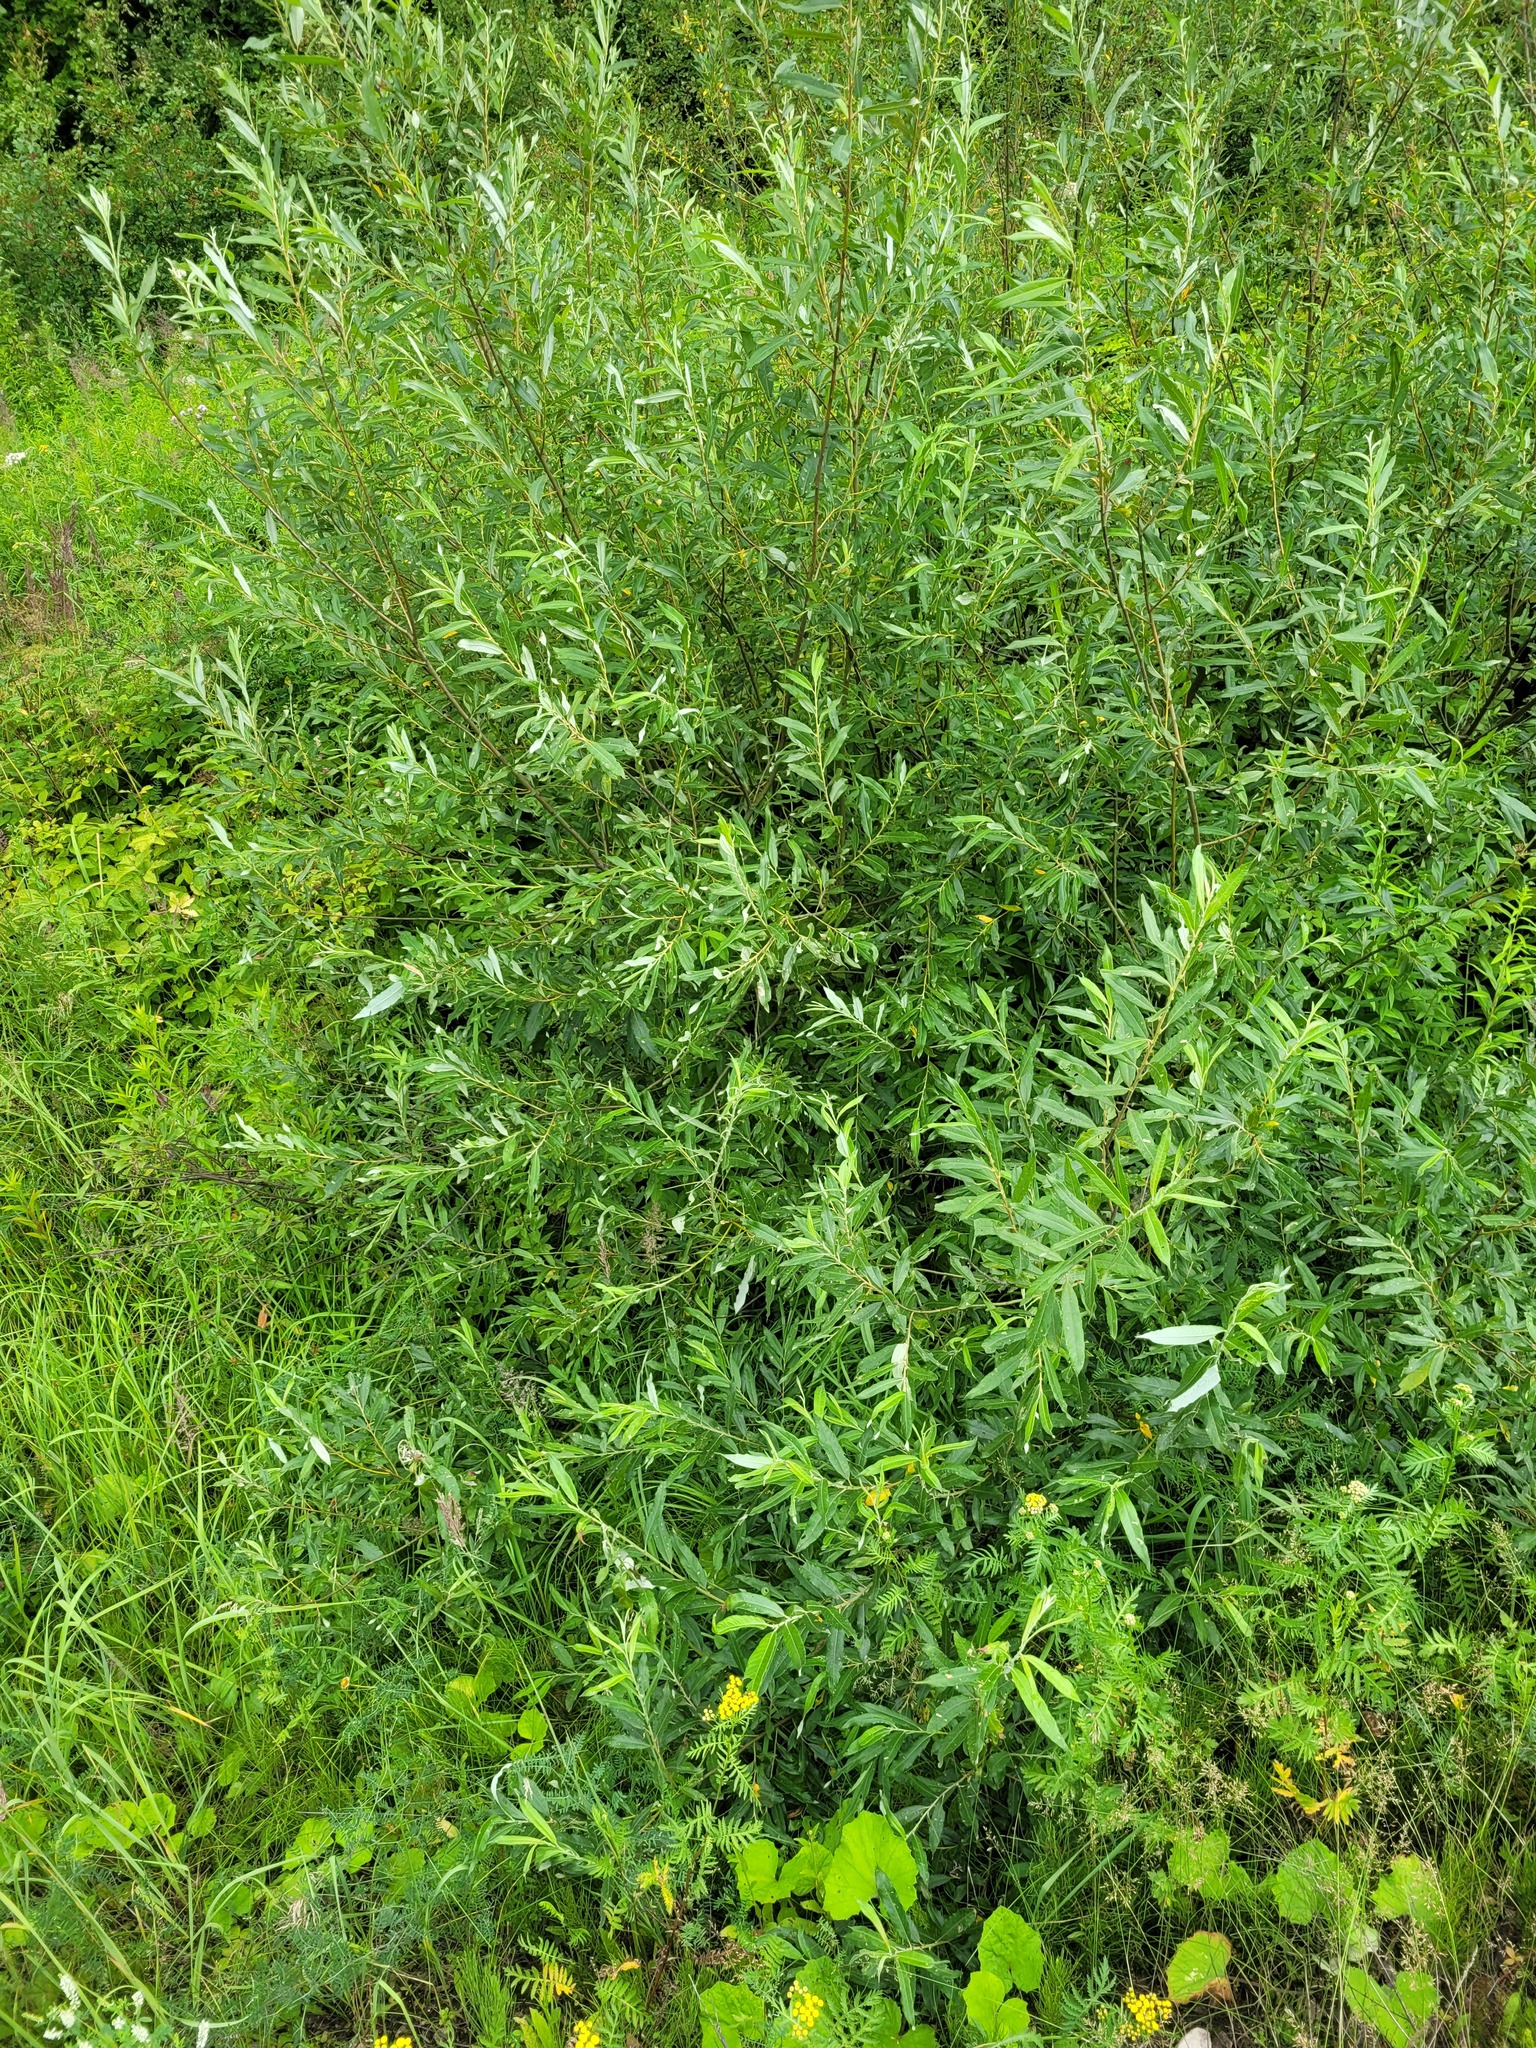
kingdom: Plantae
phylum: Tracheophyta
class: Magnoliopsida
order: Malpighiales
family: Salicaceae
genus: Salix
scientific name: Salix gmelinii
